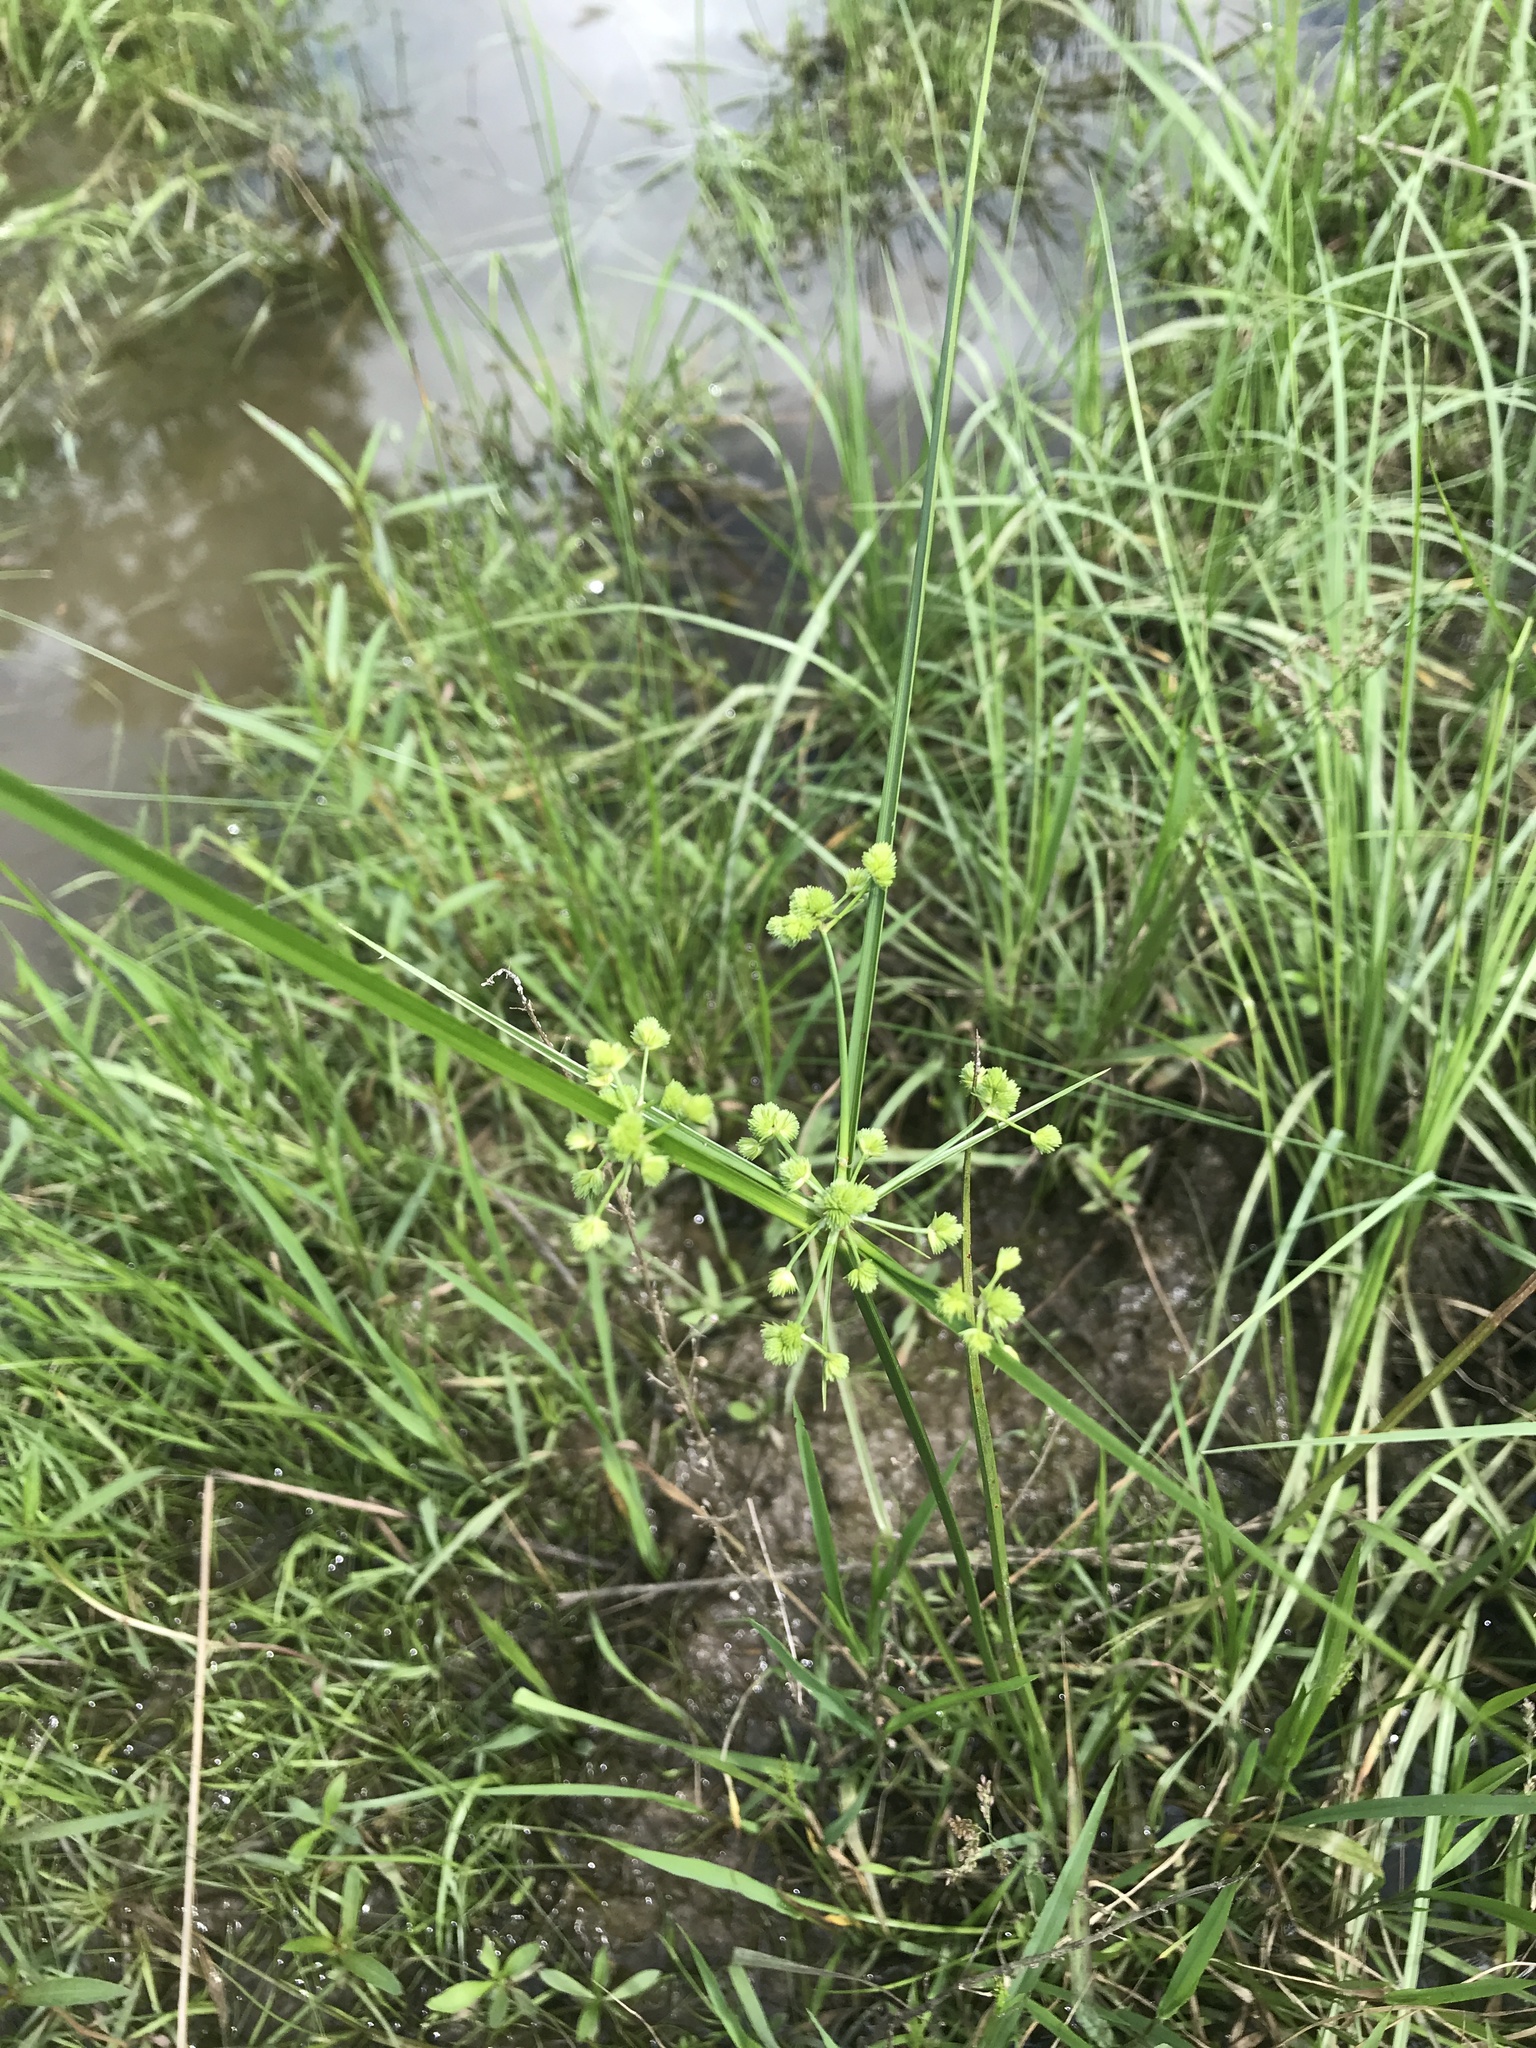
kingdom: Plantae
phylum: Tracheophyta
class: Liliopsida
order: Poales
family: Cyperaceae
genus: Cyperus
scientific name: Cyperus virens
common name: Green flatsedge
